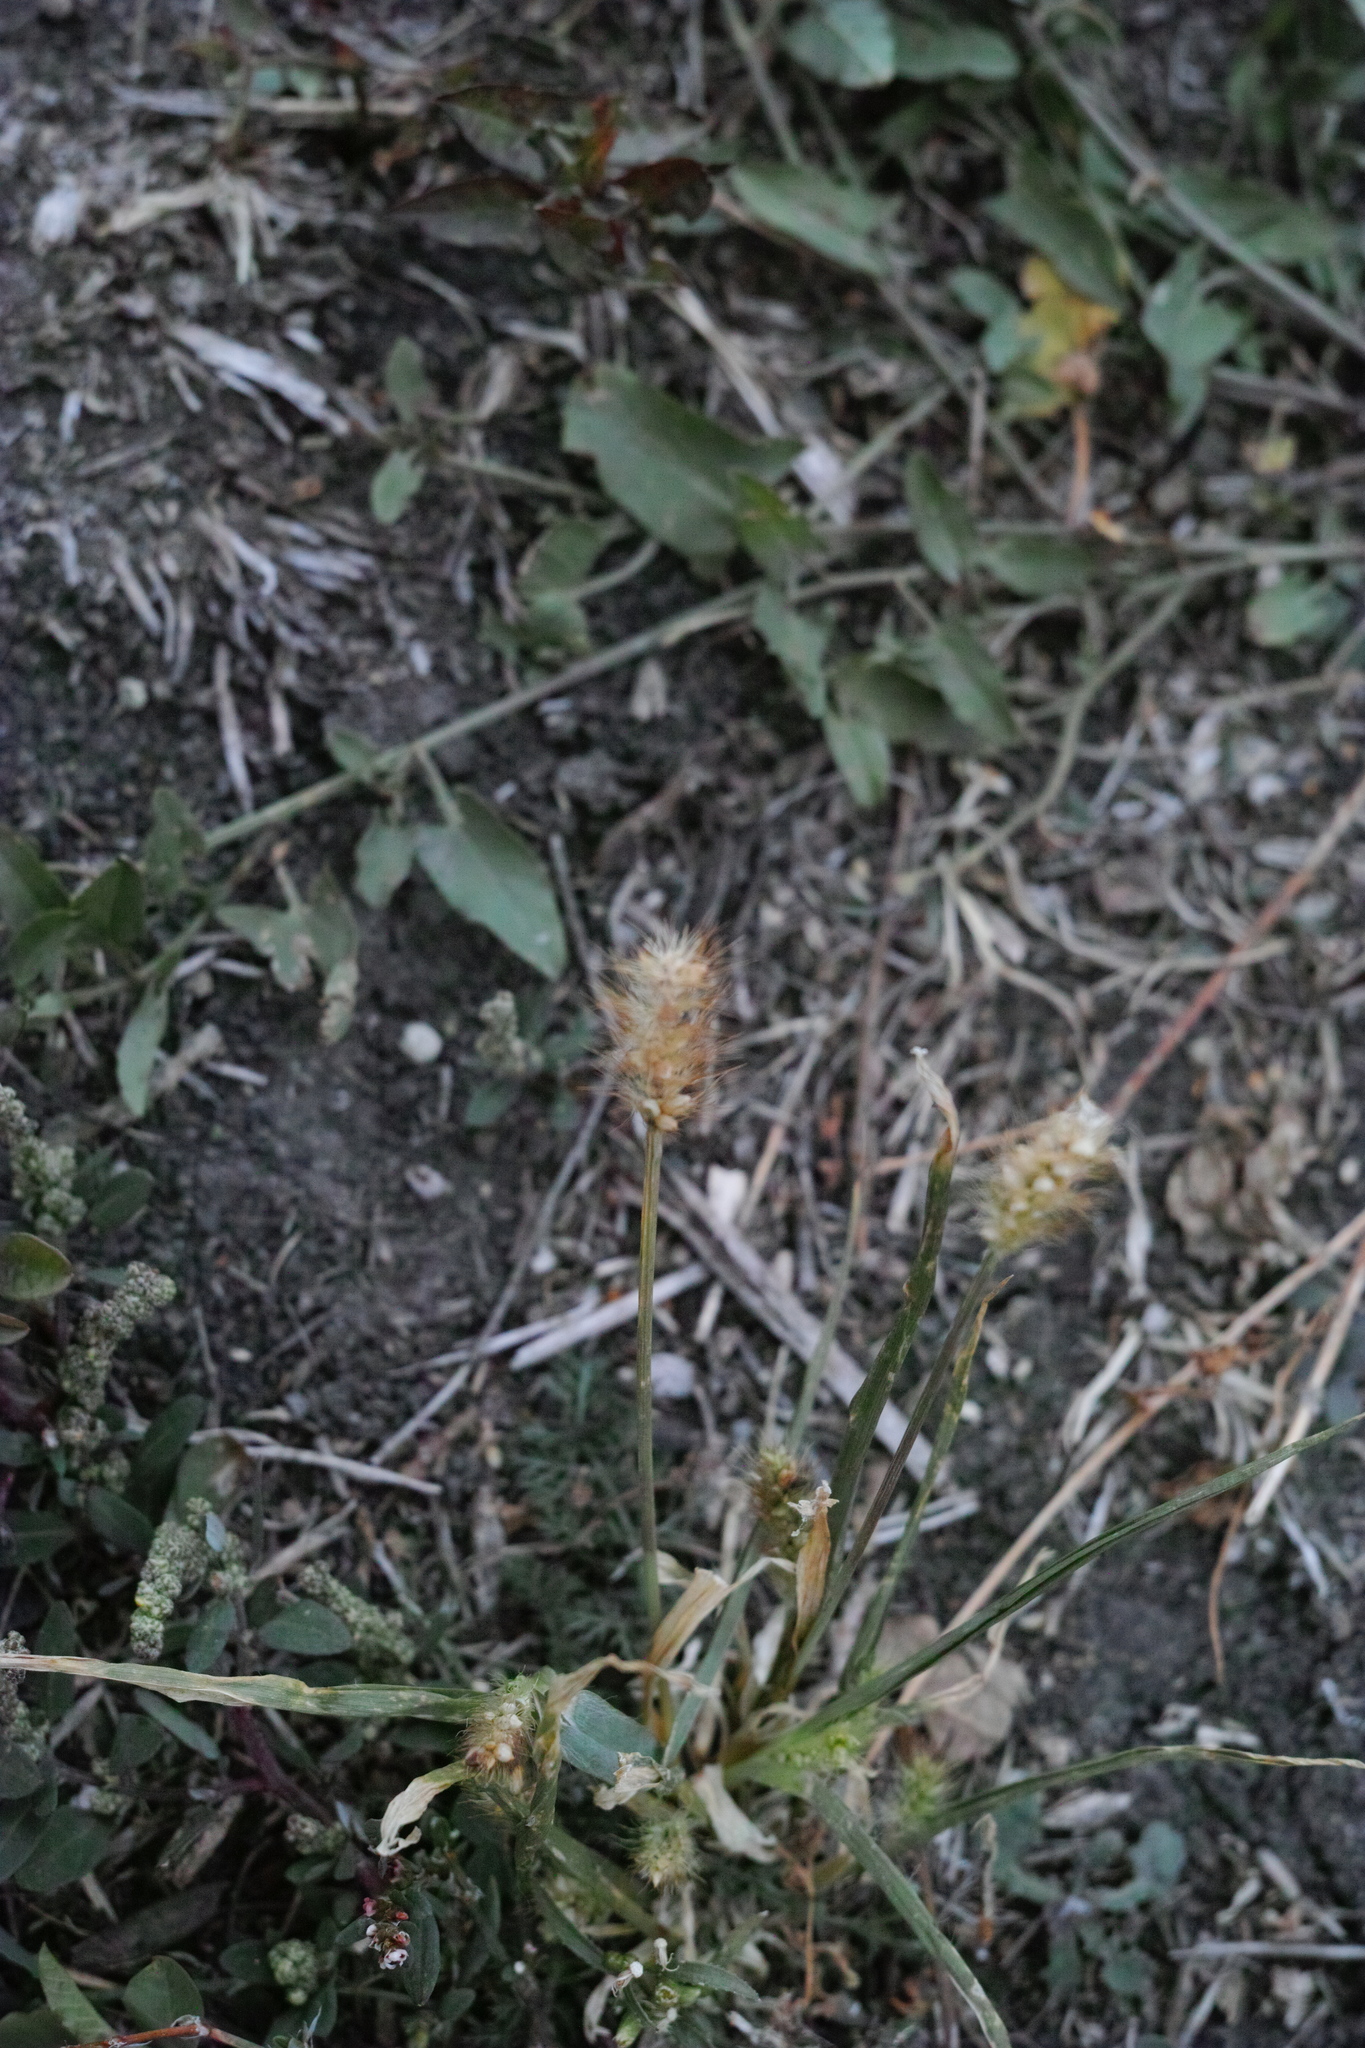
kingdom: Plantae
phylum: Tracheophyta
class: Liliopsida
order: Poales
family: Poaceae
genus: Setaria
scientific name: Setaria pumila
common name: Yellow bristle-grass
